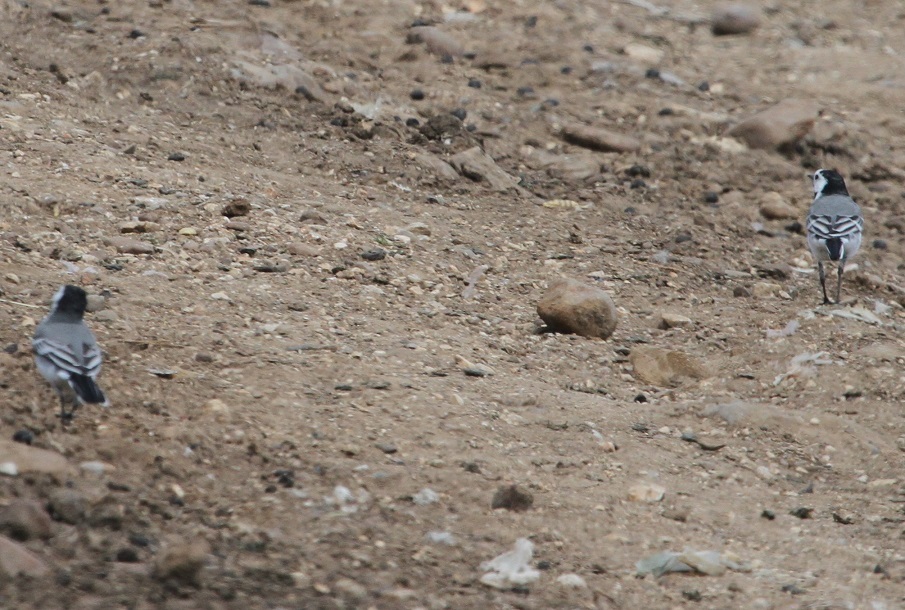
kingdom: Animalia
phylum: Chordata
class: Aves
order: Passeriformes
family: Motacillidae
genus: Motacilla
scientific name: Motacilla alba
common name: White wagtail
